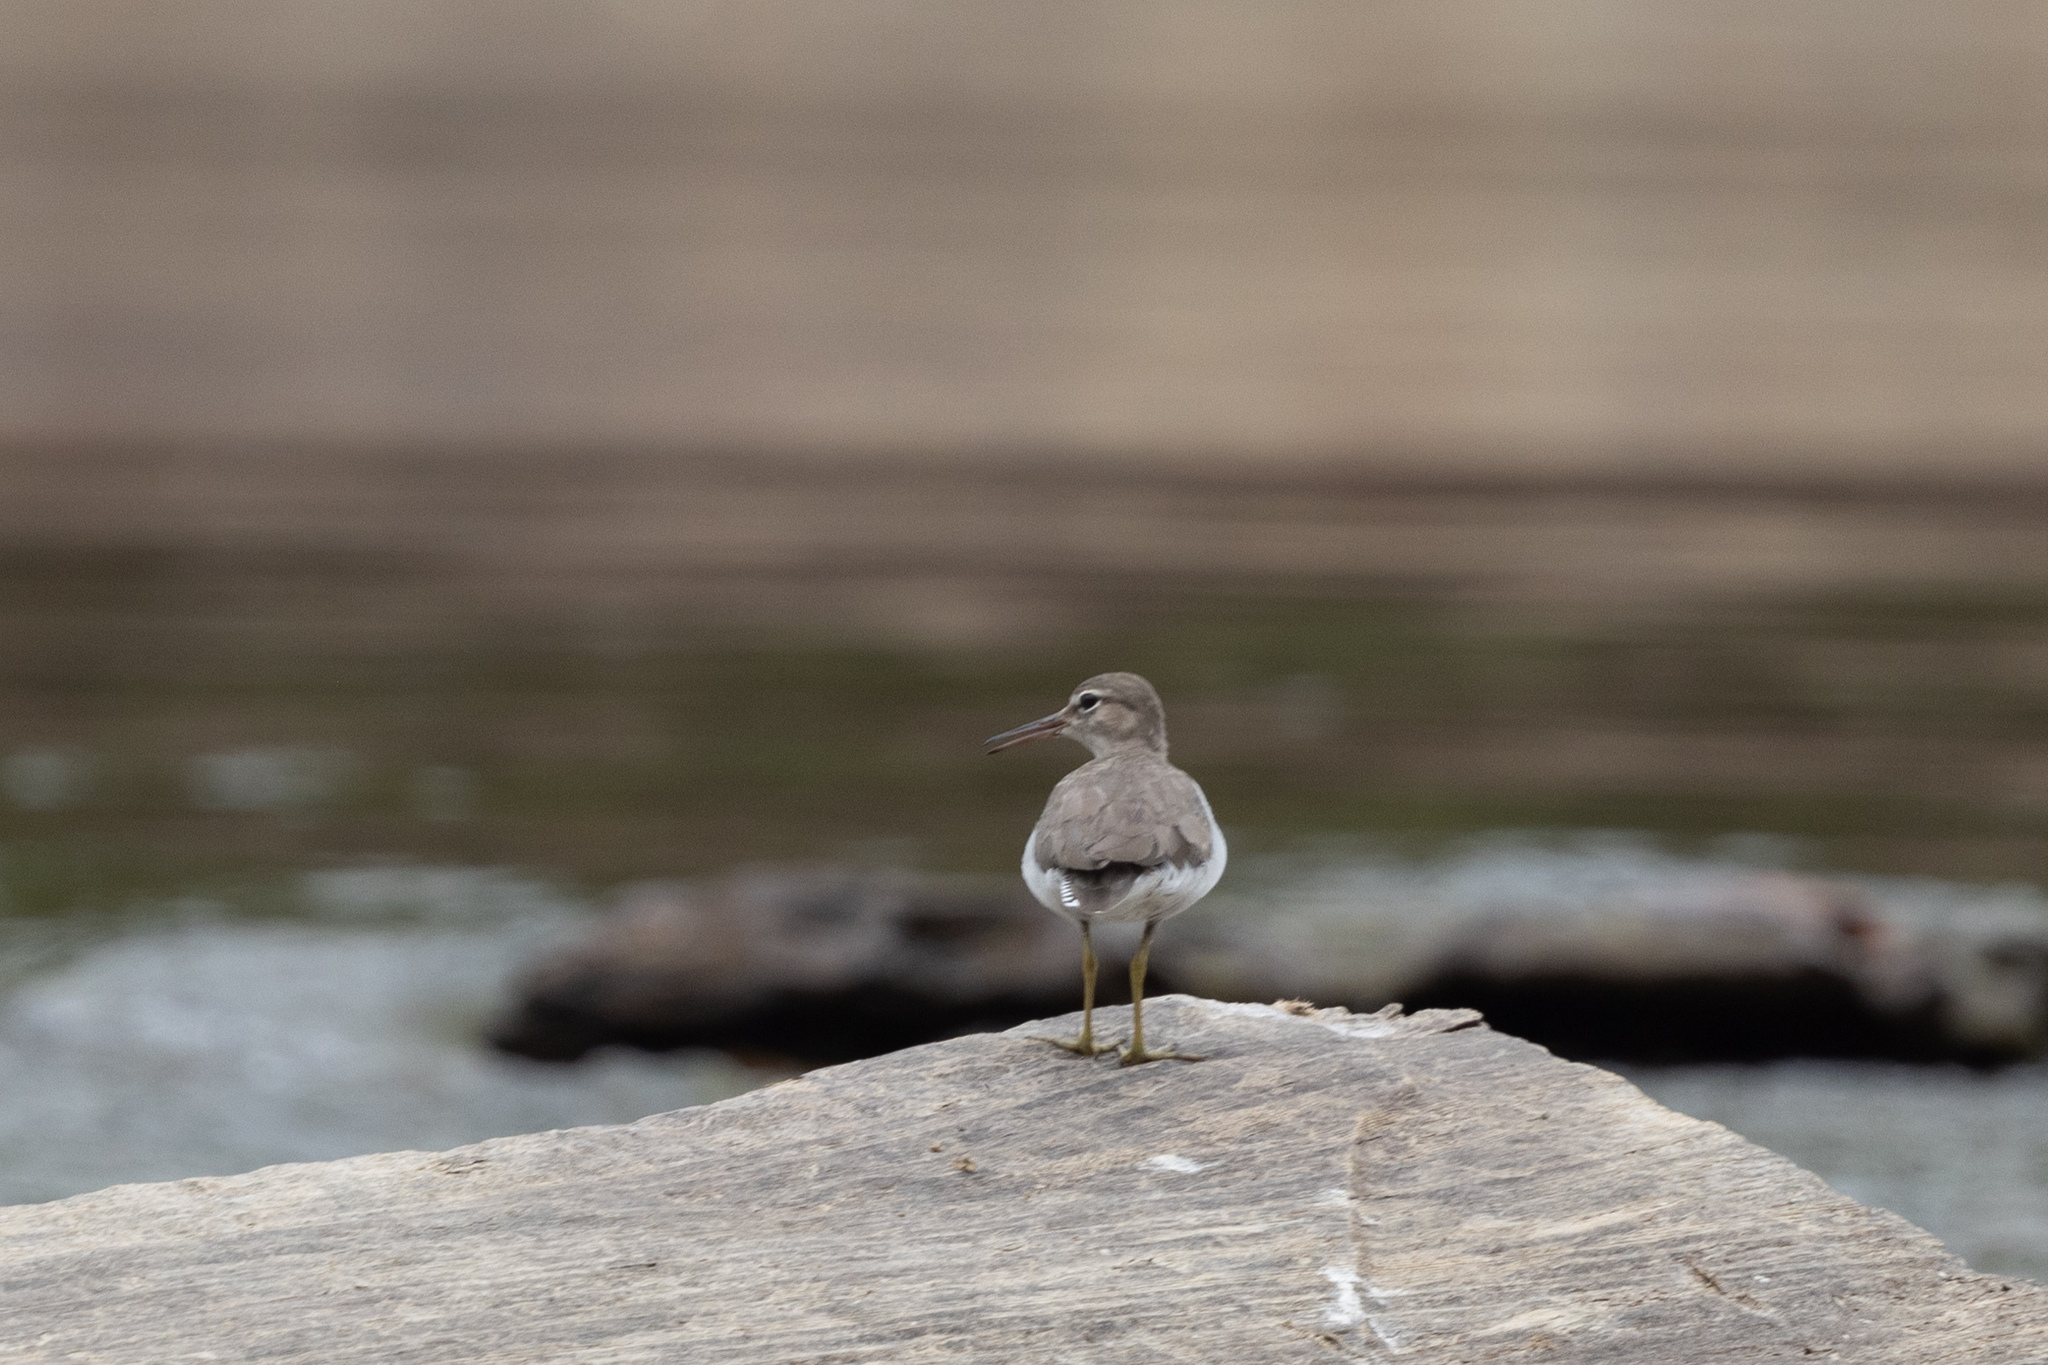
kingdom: Animalia
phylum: Chordata
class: Aves
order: Charadriiformes
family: Scolopacidae
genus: Actitis
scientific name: Actitis macularius
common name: Spotted sandpiper
